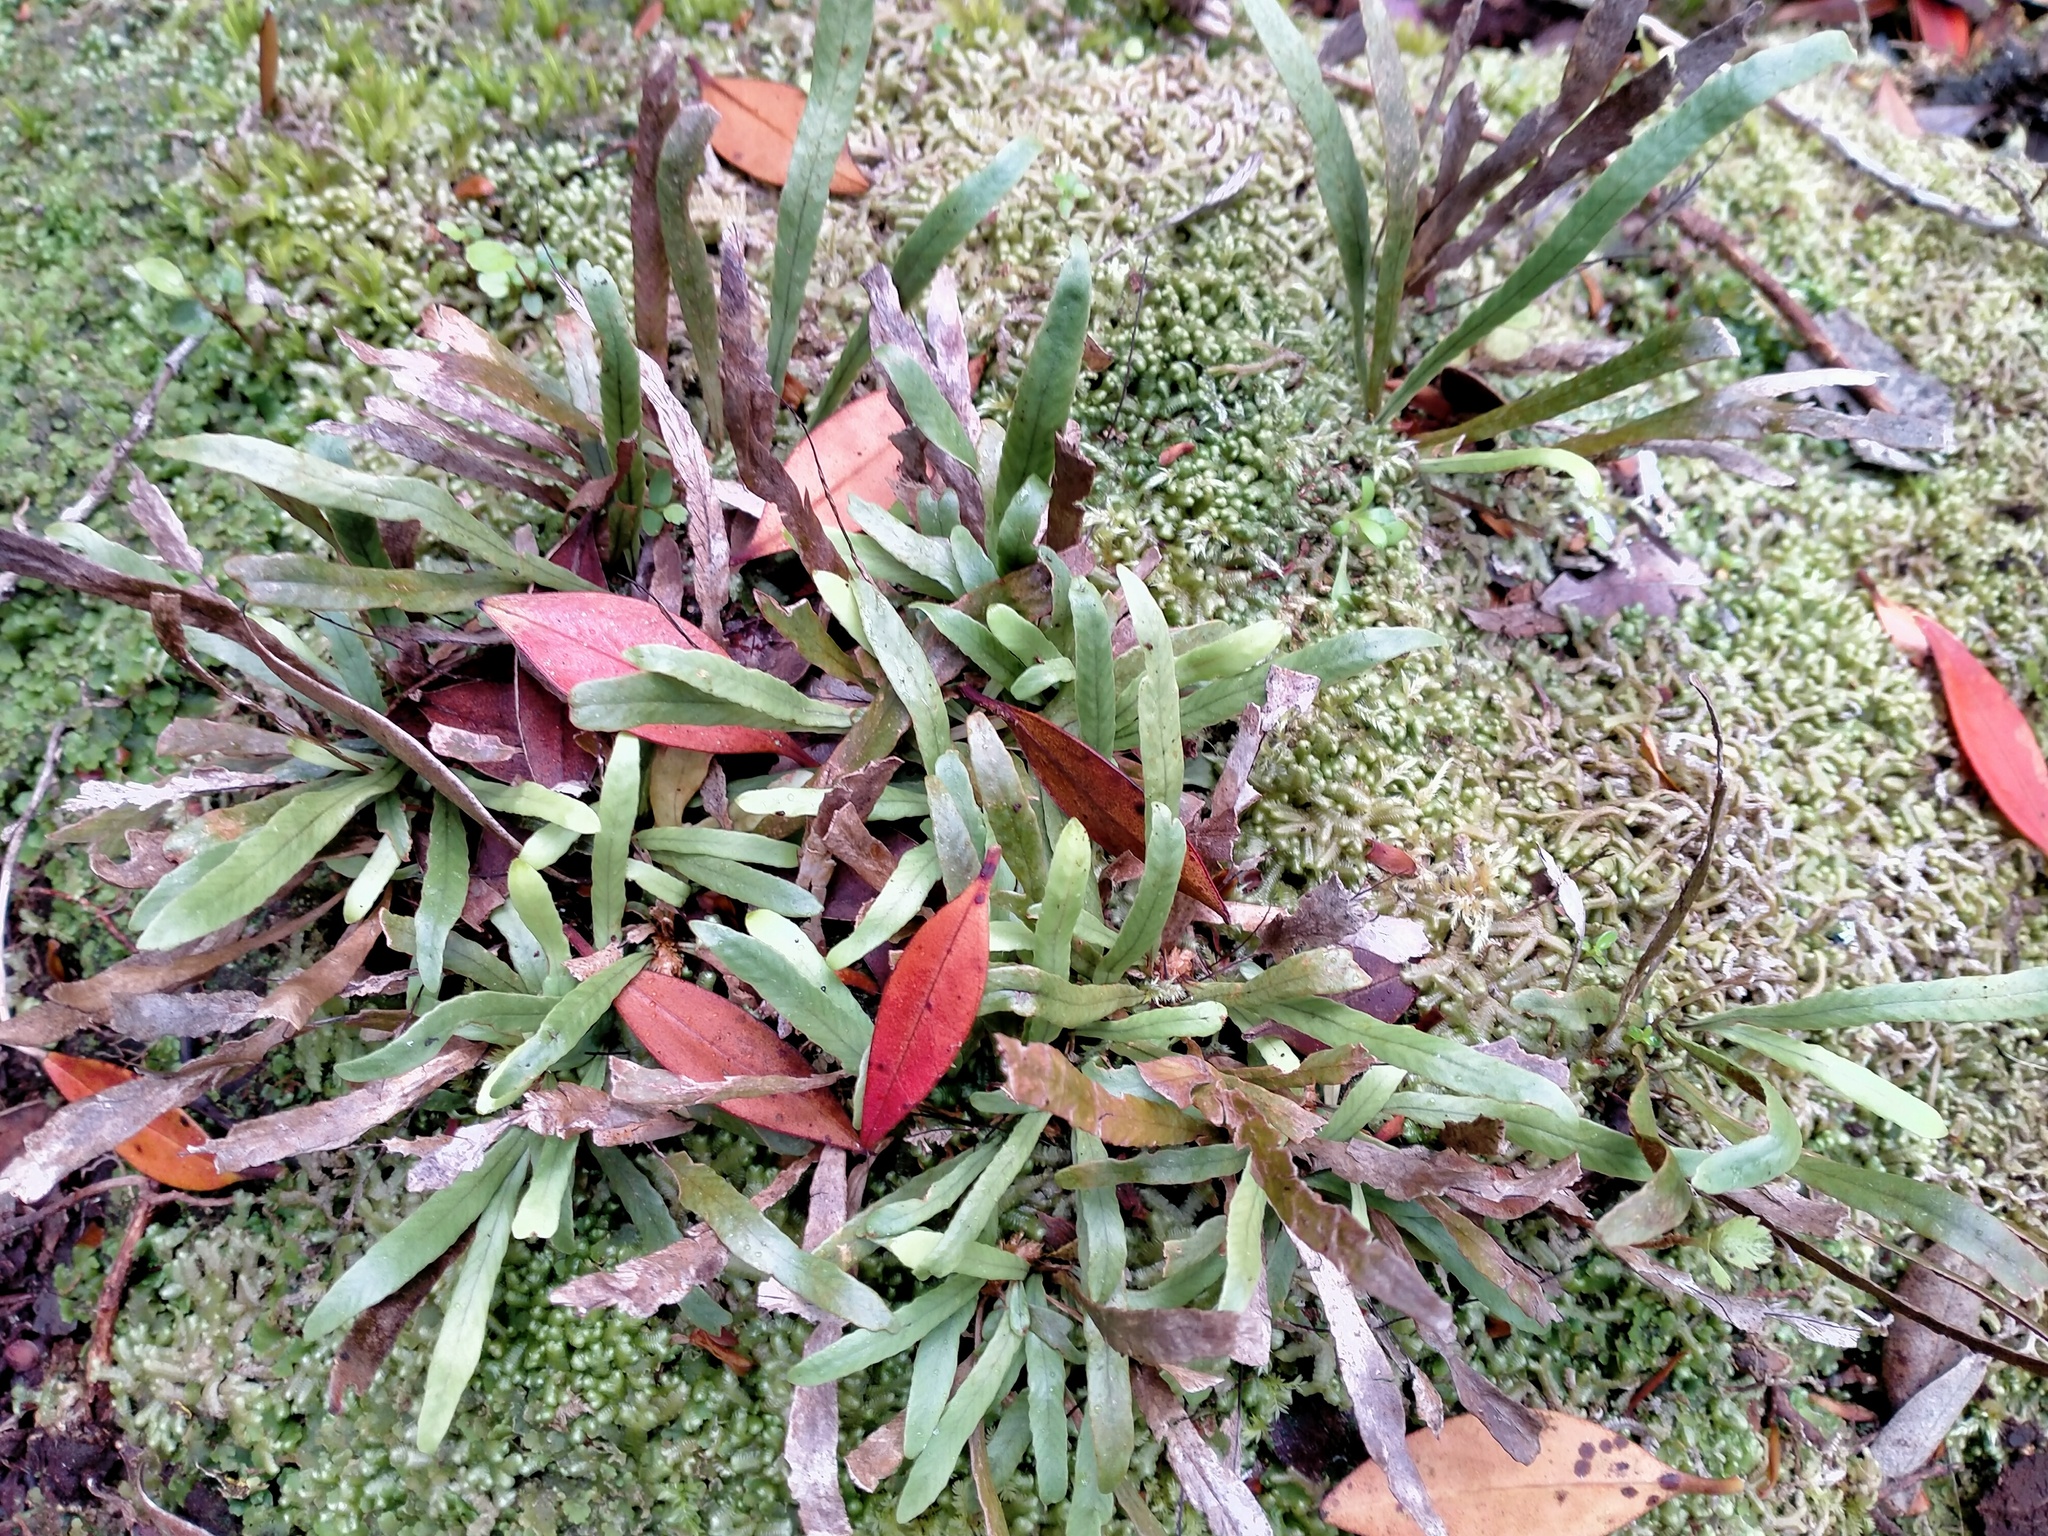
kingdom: Plantae
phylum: Tracheophyta
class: Polypodiopsida
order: Polypodiales
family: Polypodiaceae
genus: Notogrammitis
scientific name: Notogrammitis billardierei
